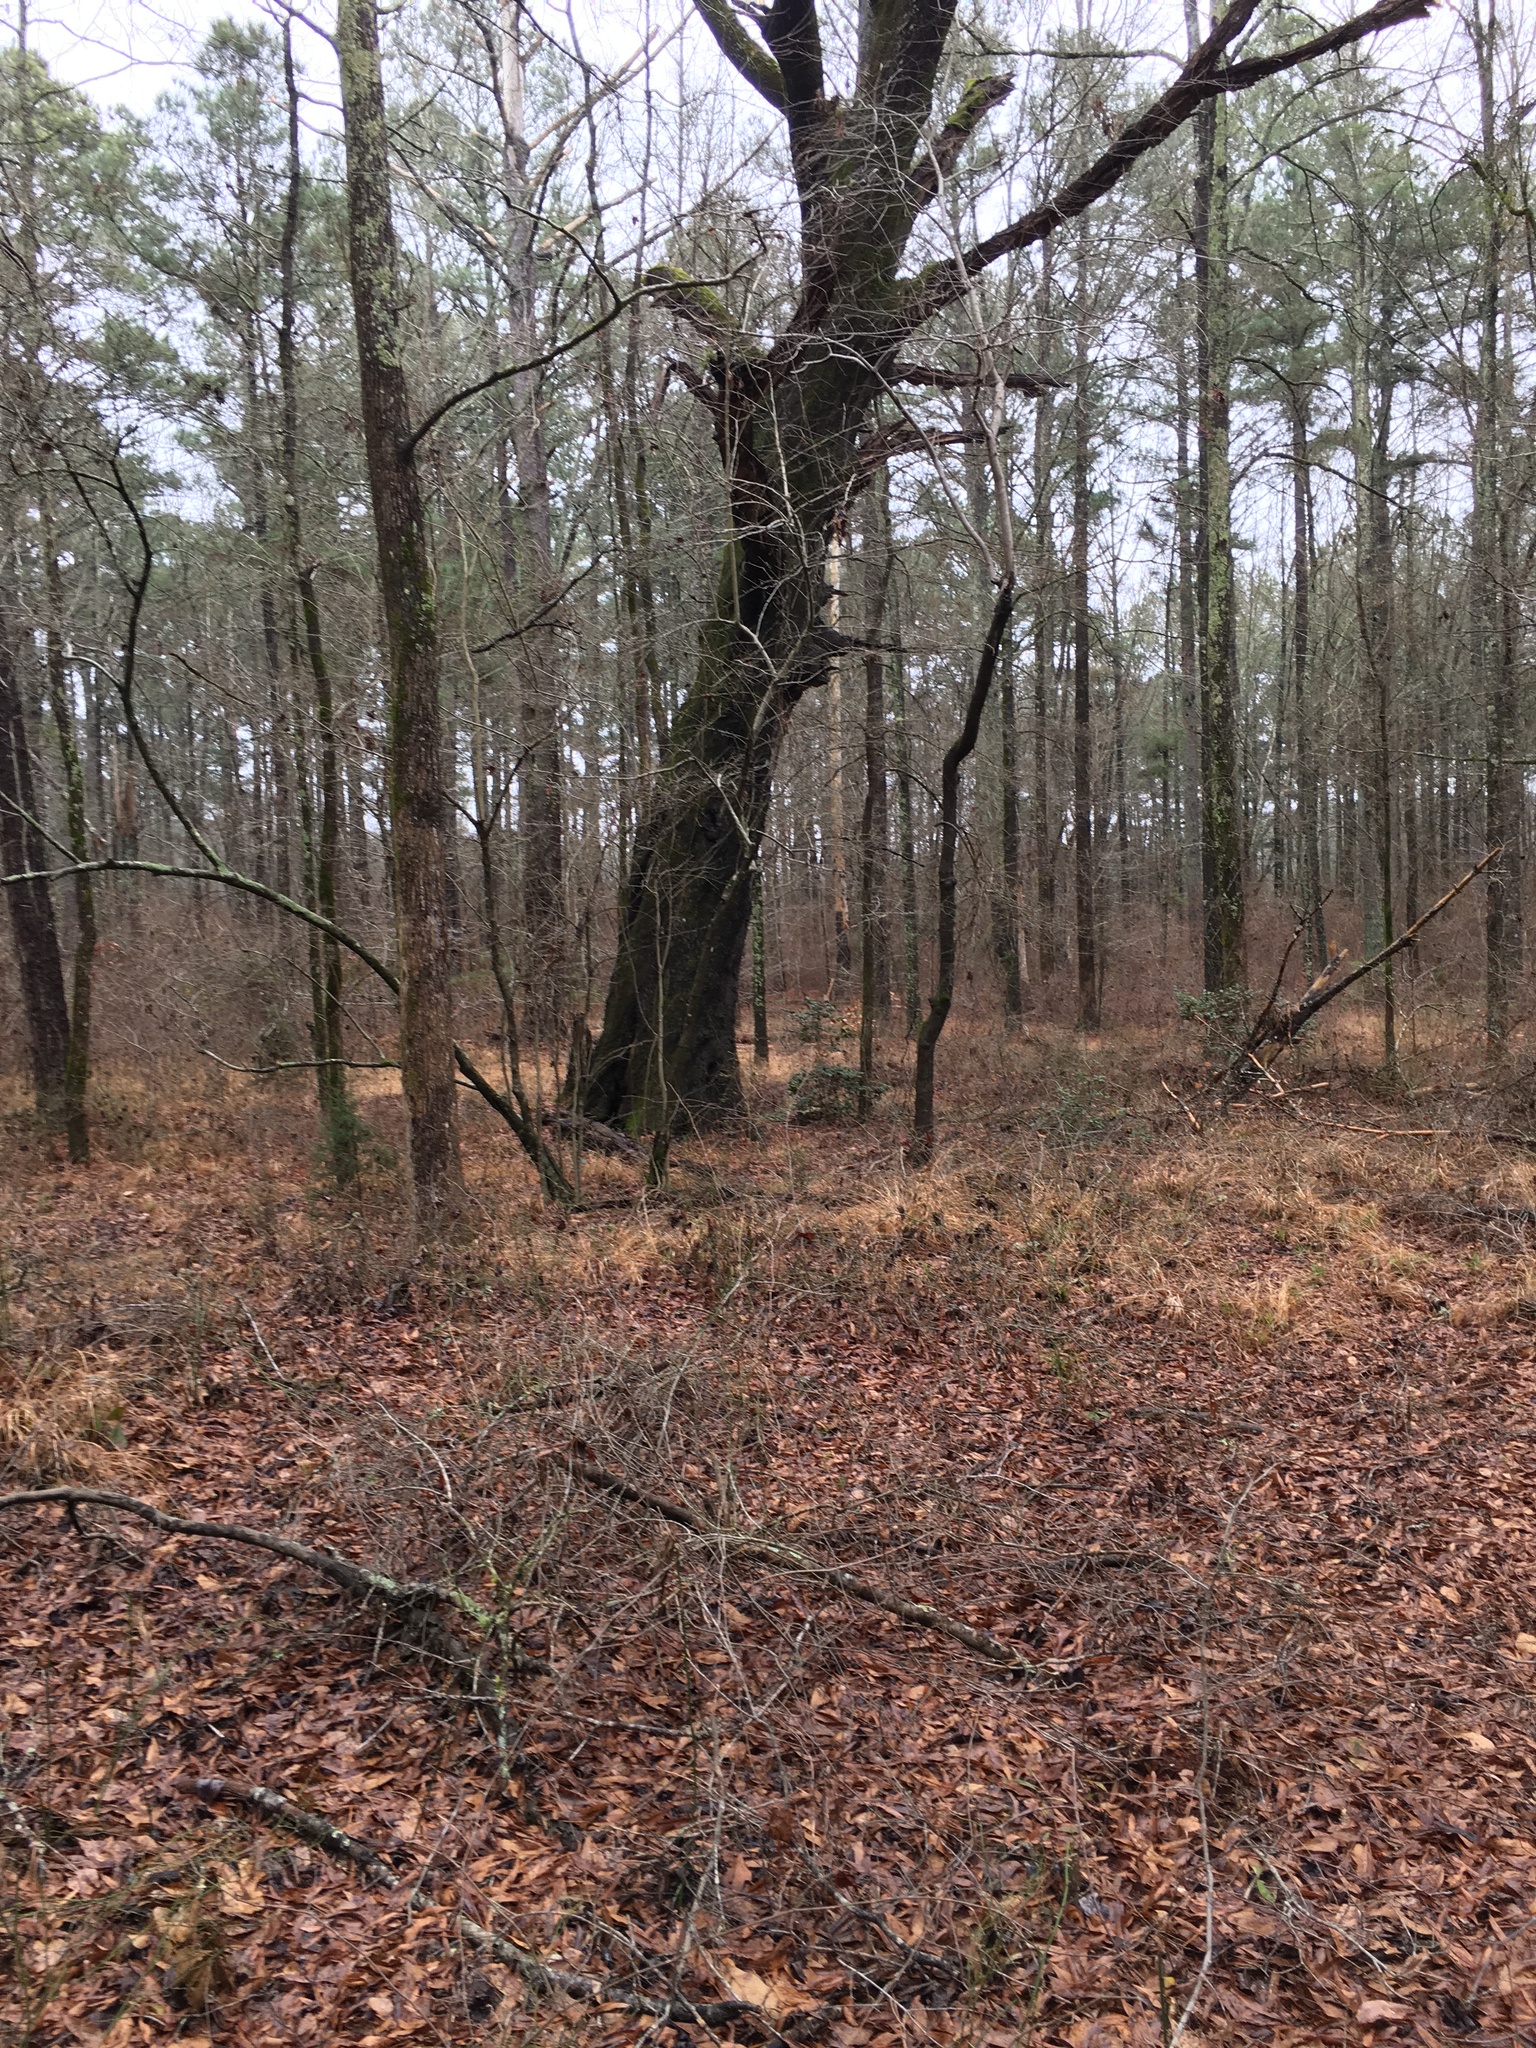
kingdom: Plantae
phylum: Tracheophyta
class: Magnoliopsida
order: Fagales
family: Fagaceae
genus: Quercus
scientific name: Quercus phellos
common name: Willow oak
